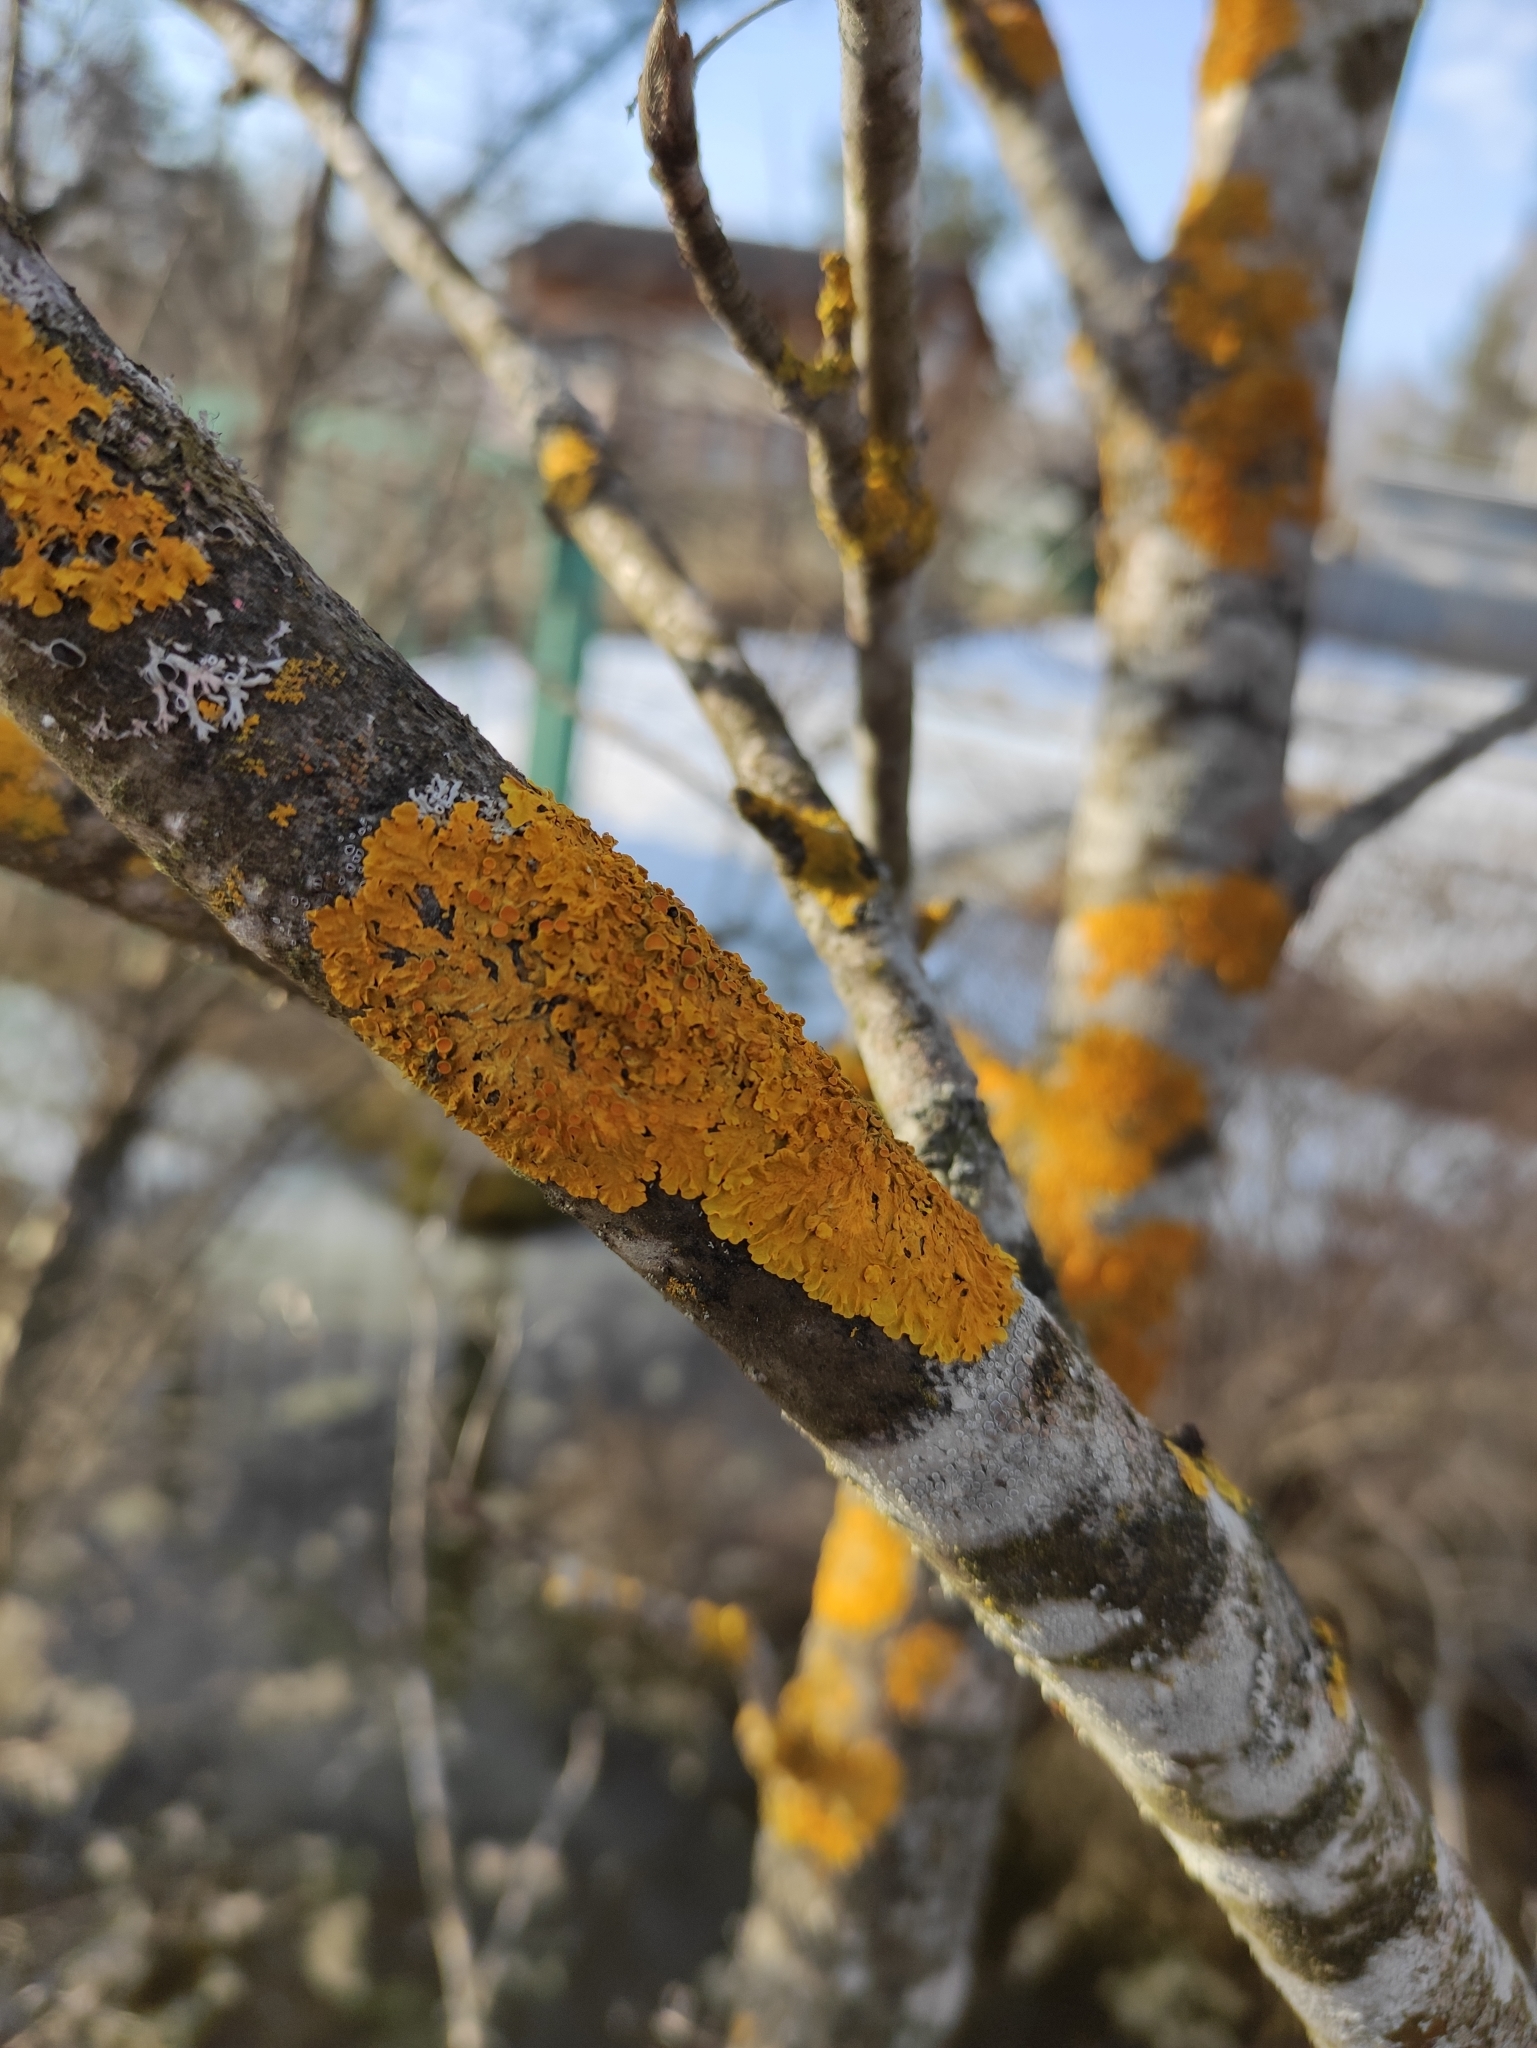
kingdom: Fungi
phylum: Ascomycota
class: Lecanoromycetes
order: Teloschistales
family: Teloschistaceae
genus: Xanthoria
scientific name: Xanthoria parietina
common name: Common orange lichen
